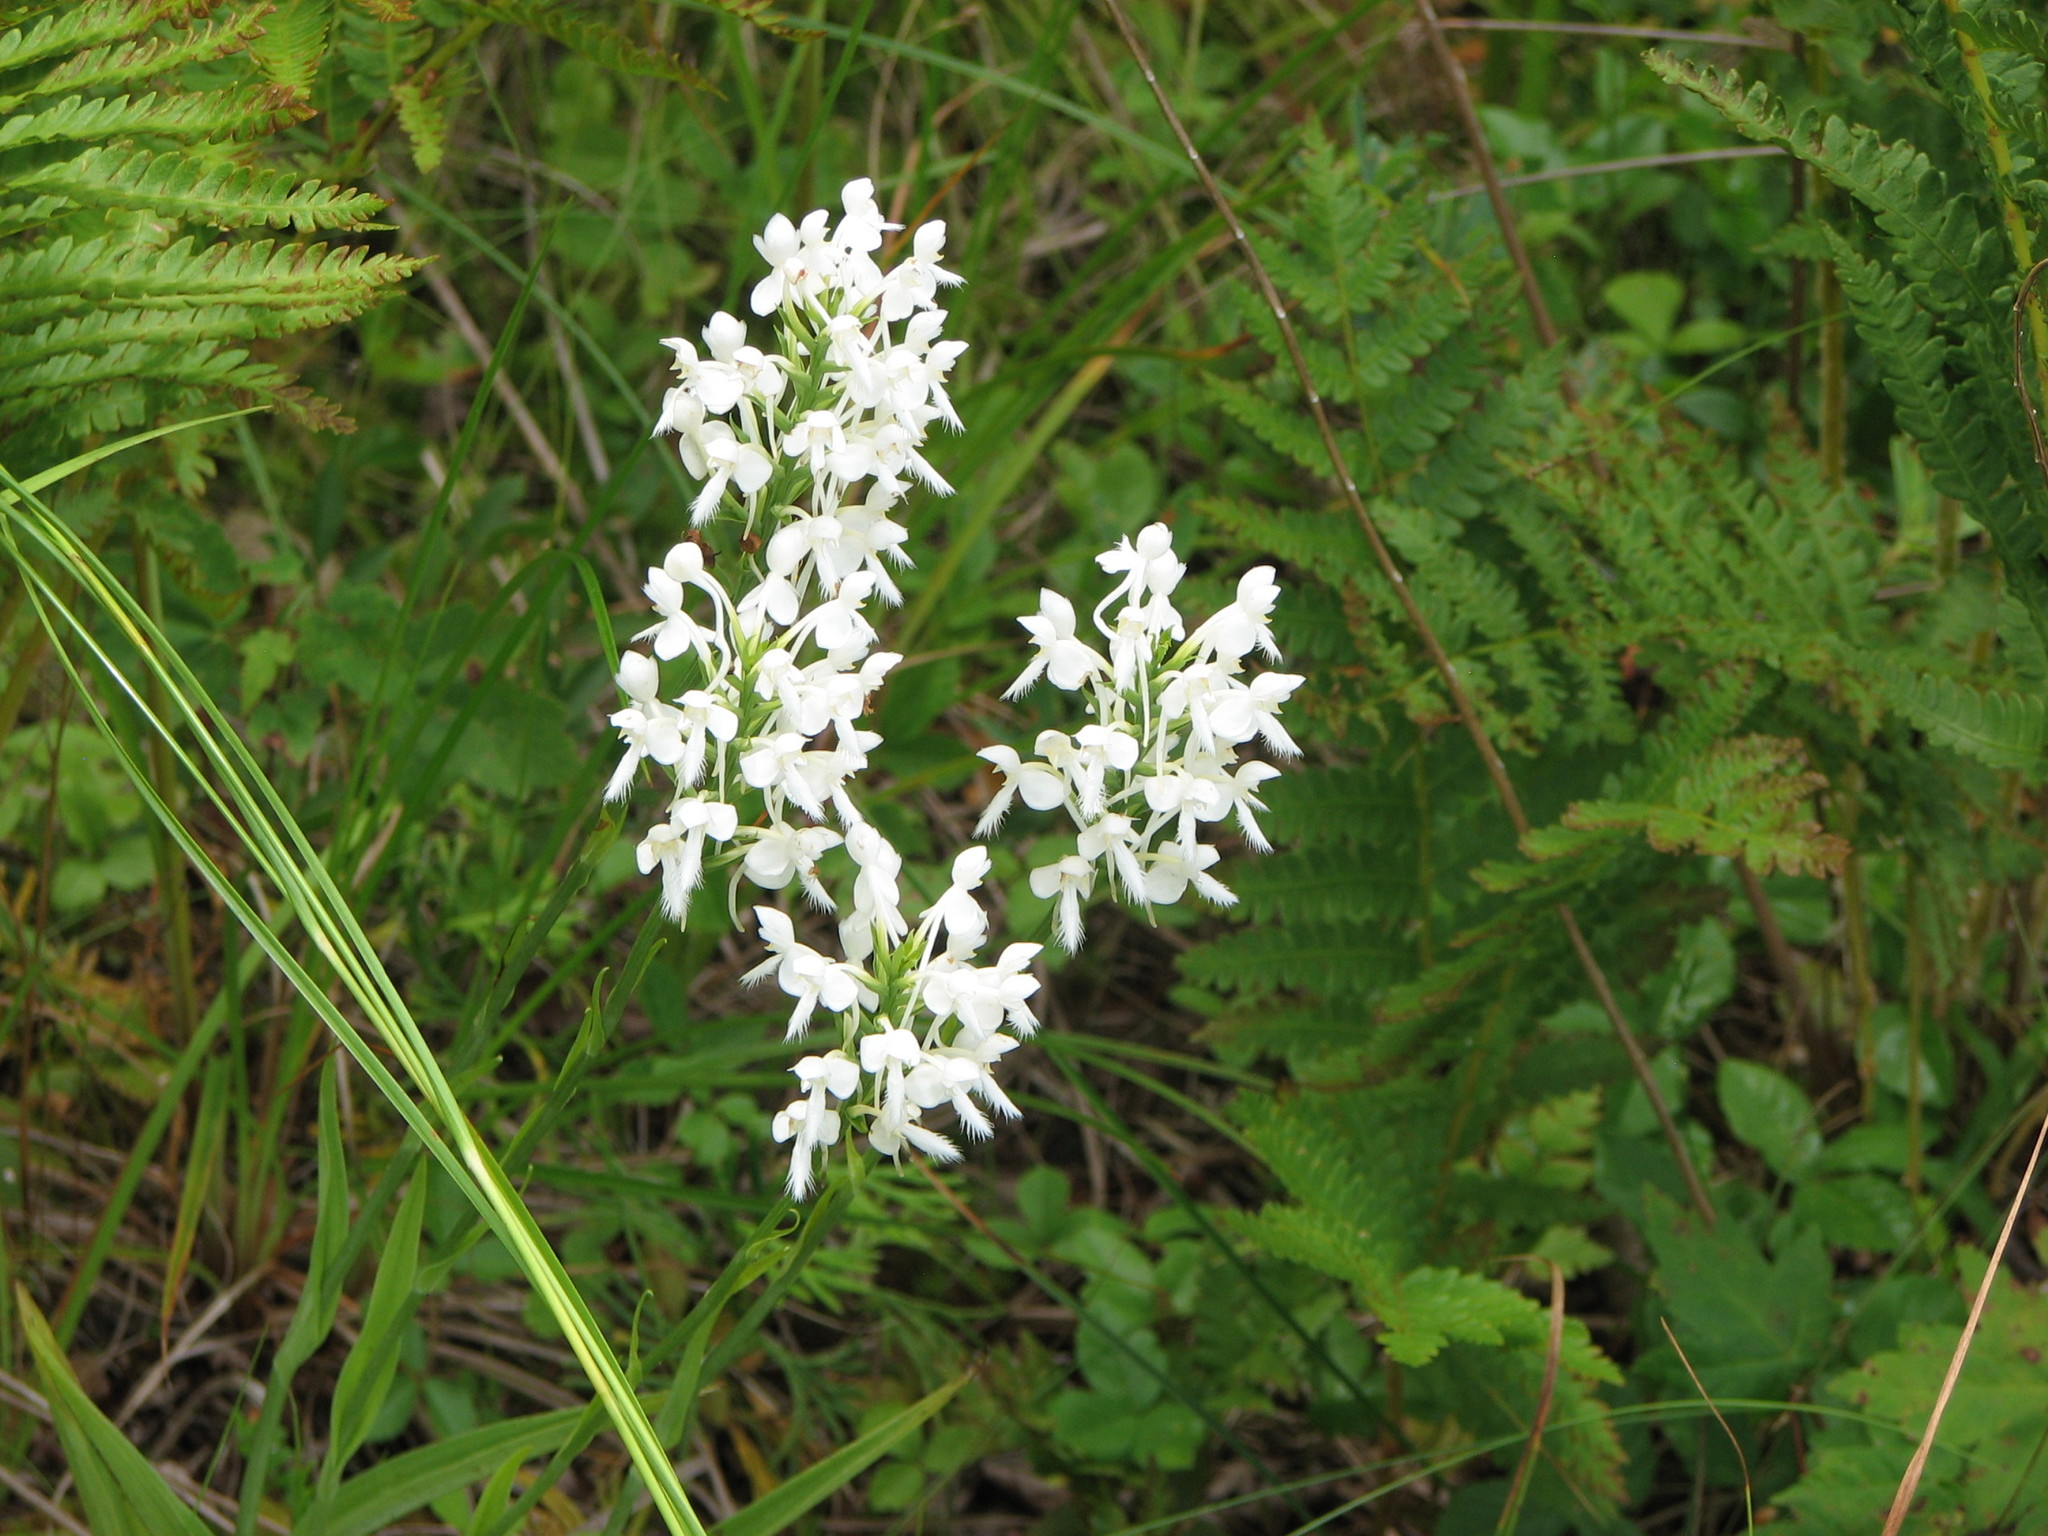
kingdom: Plantae
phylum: Tracheophyta
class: Liliopsida
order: Asparagales
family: Orchidaceae
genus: Platanthera
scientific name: Platanthera blephariglottis
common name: White fringed orchid
